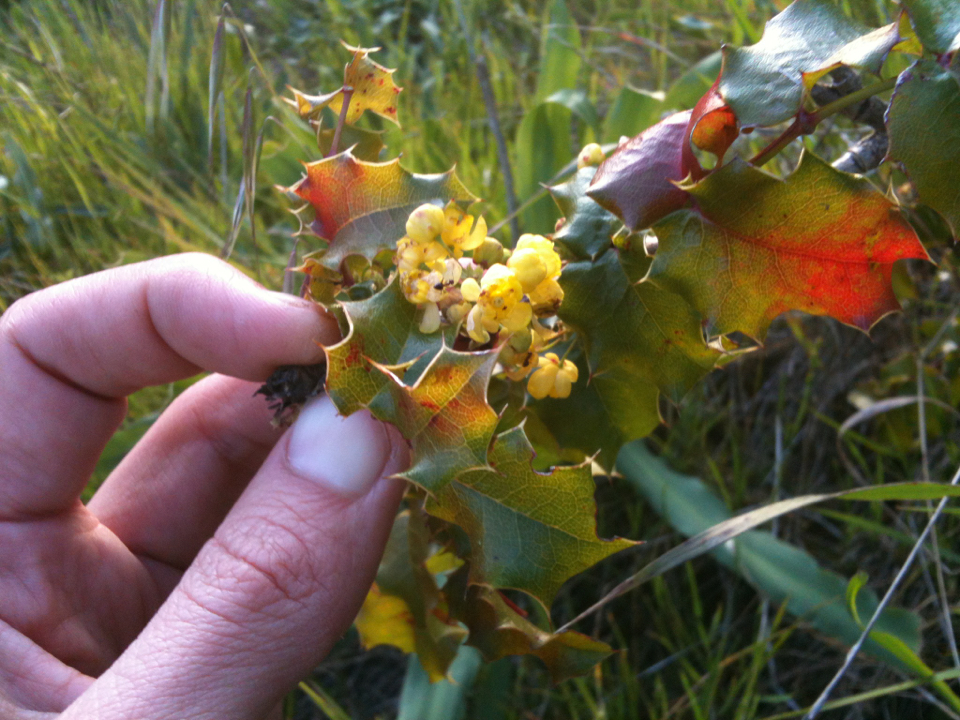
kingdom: Plantae
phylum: Tracheophyta
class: Magnoliopsida
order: Ranunculales
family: Berberidaceae
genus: Mahonia
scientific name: Mahonia
